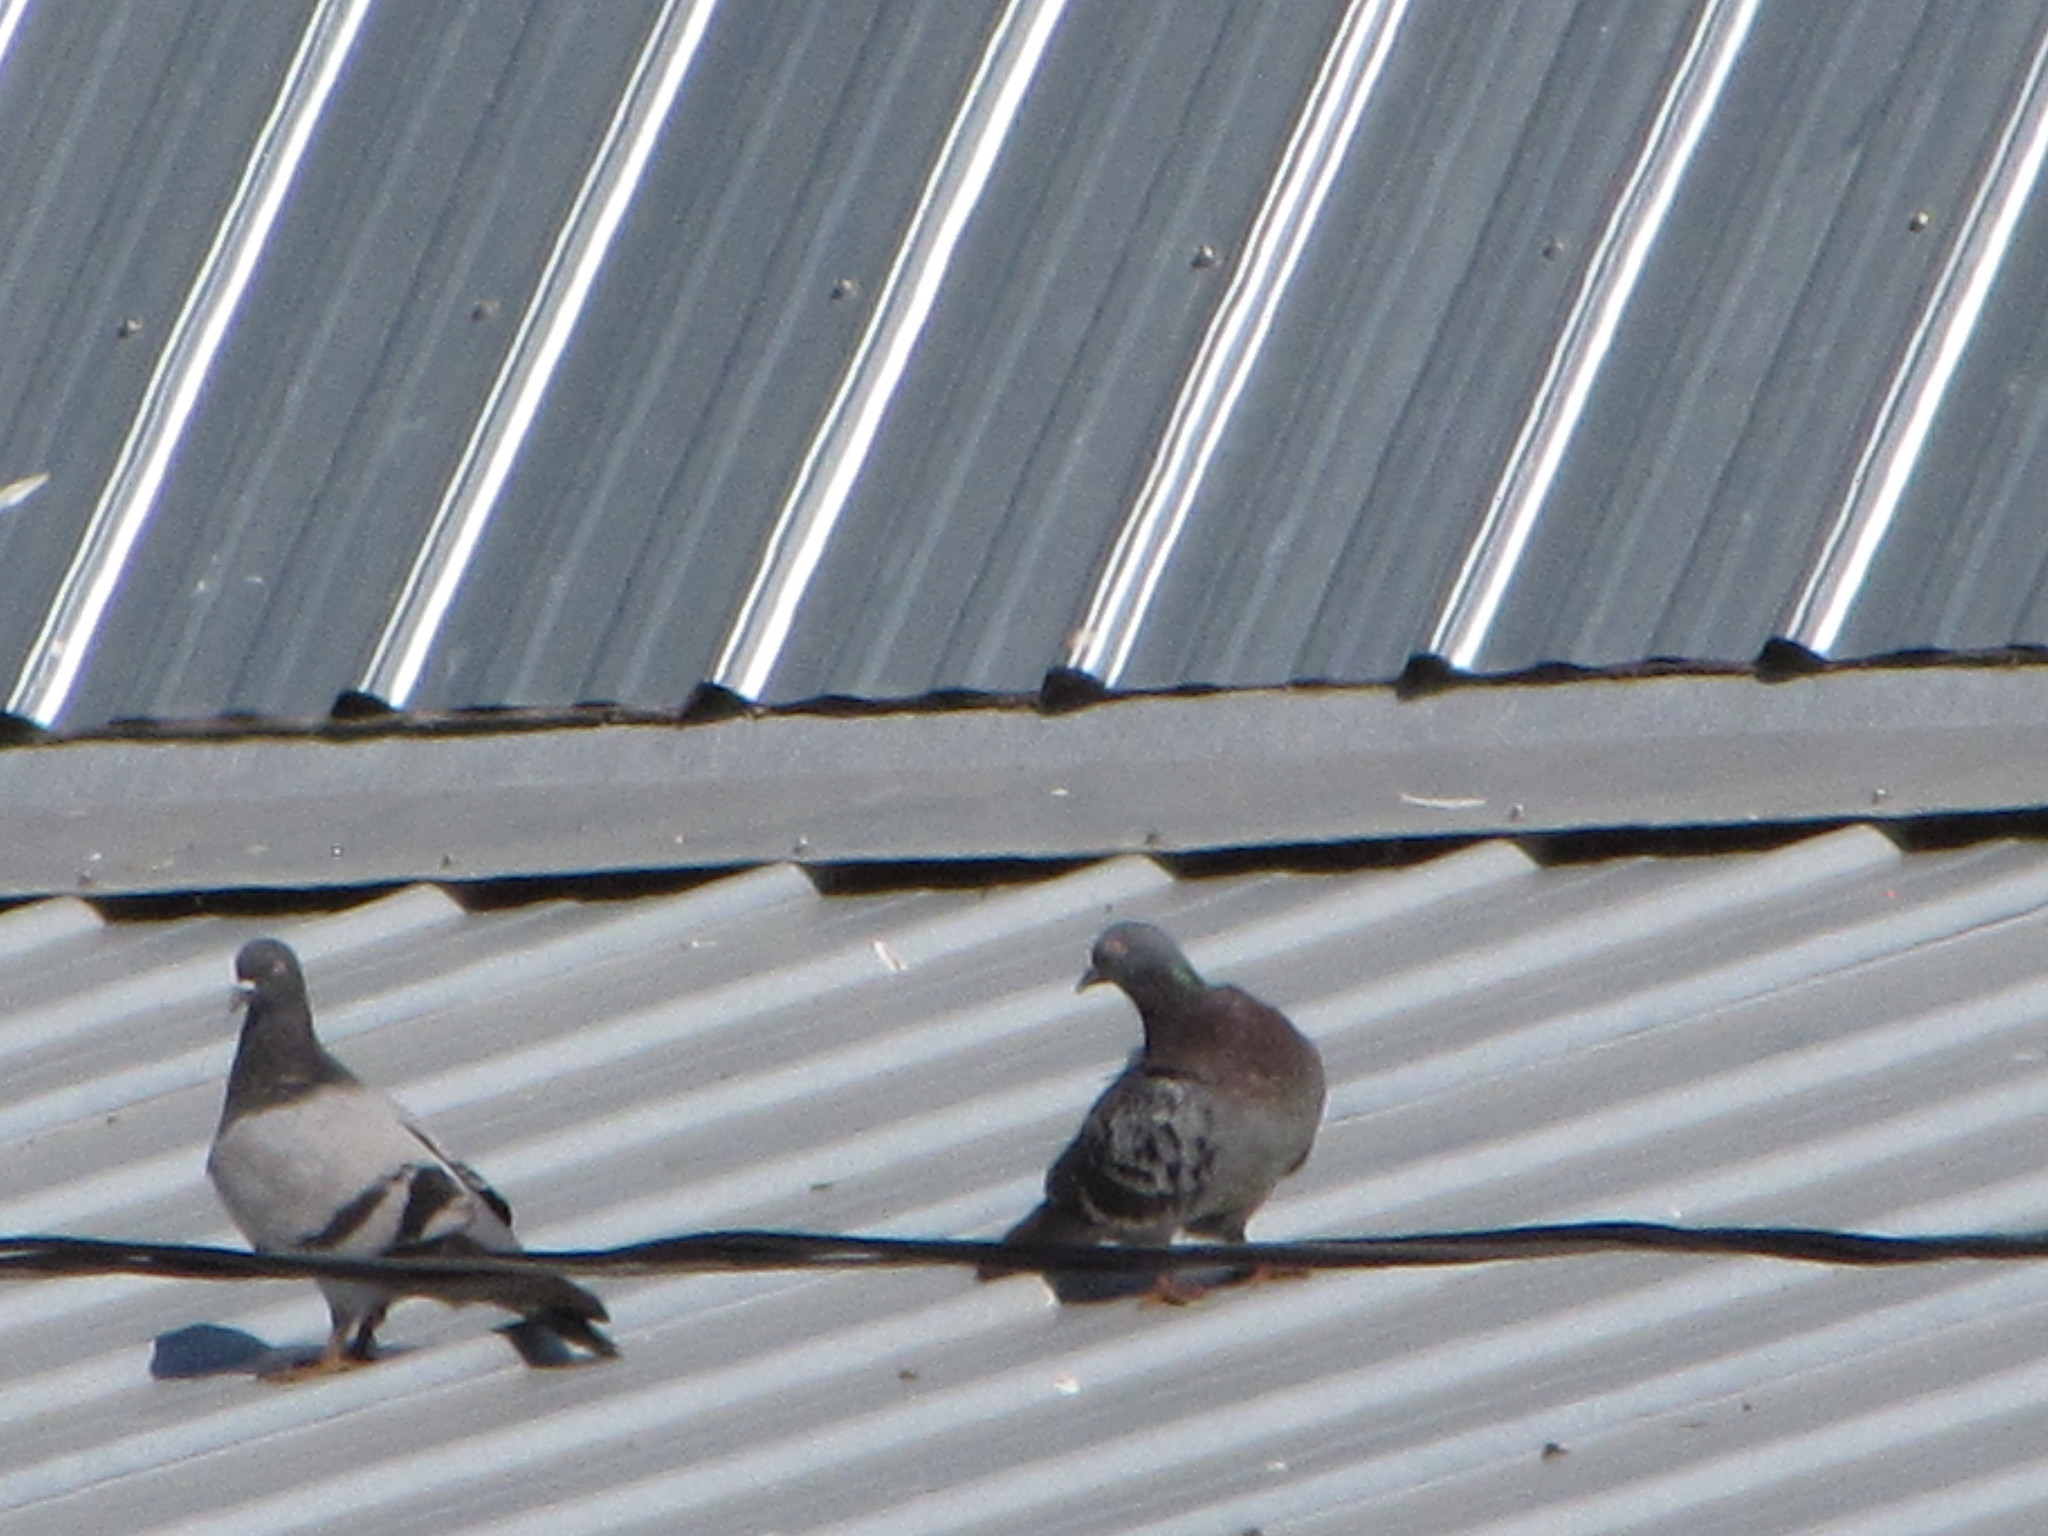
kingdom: Animalia
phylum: Chordata
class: Aves
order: Columbiformes
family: Columbidae
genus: Columba
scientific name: Columba livia
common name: Rock pigeon
